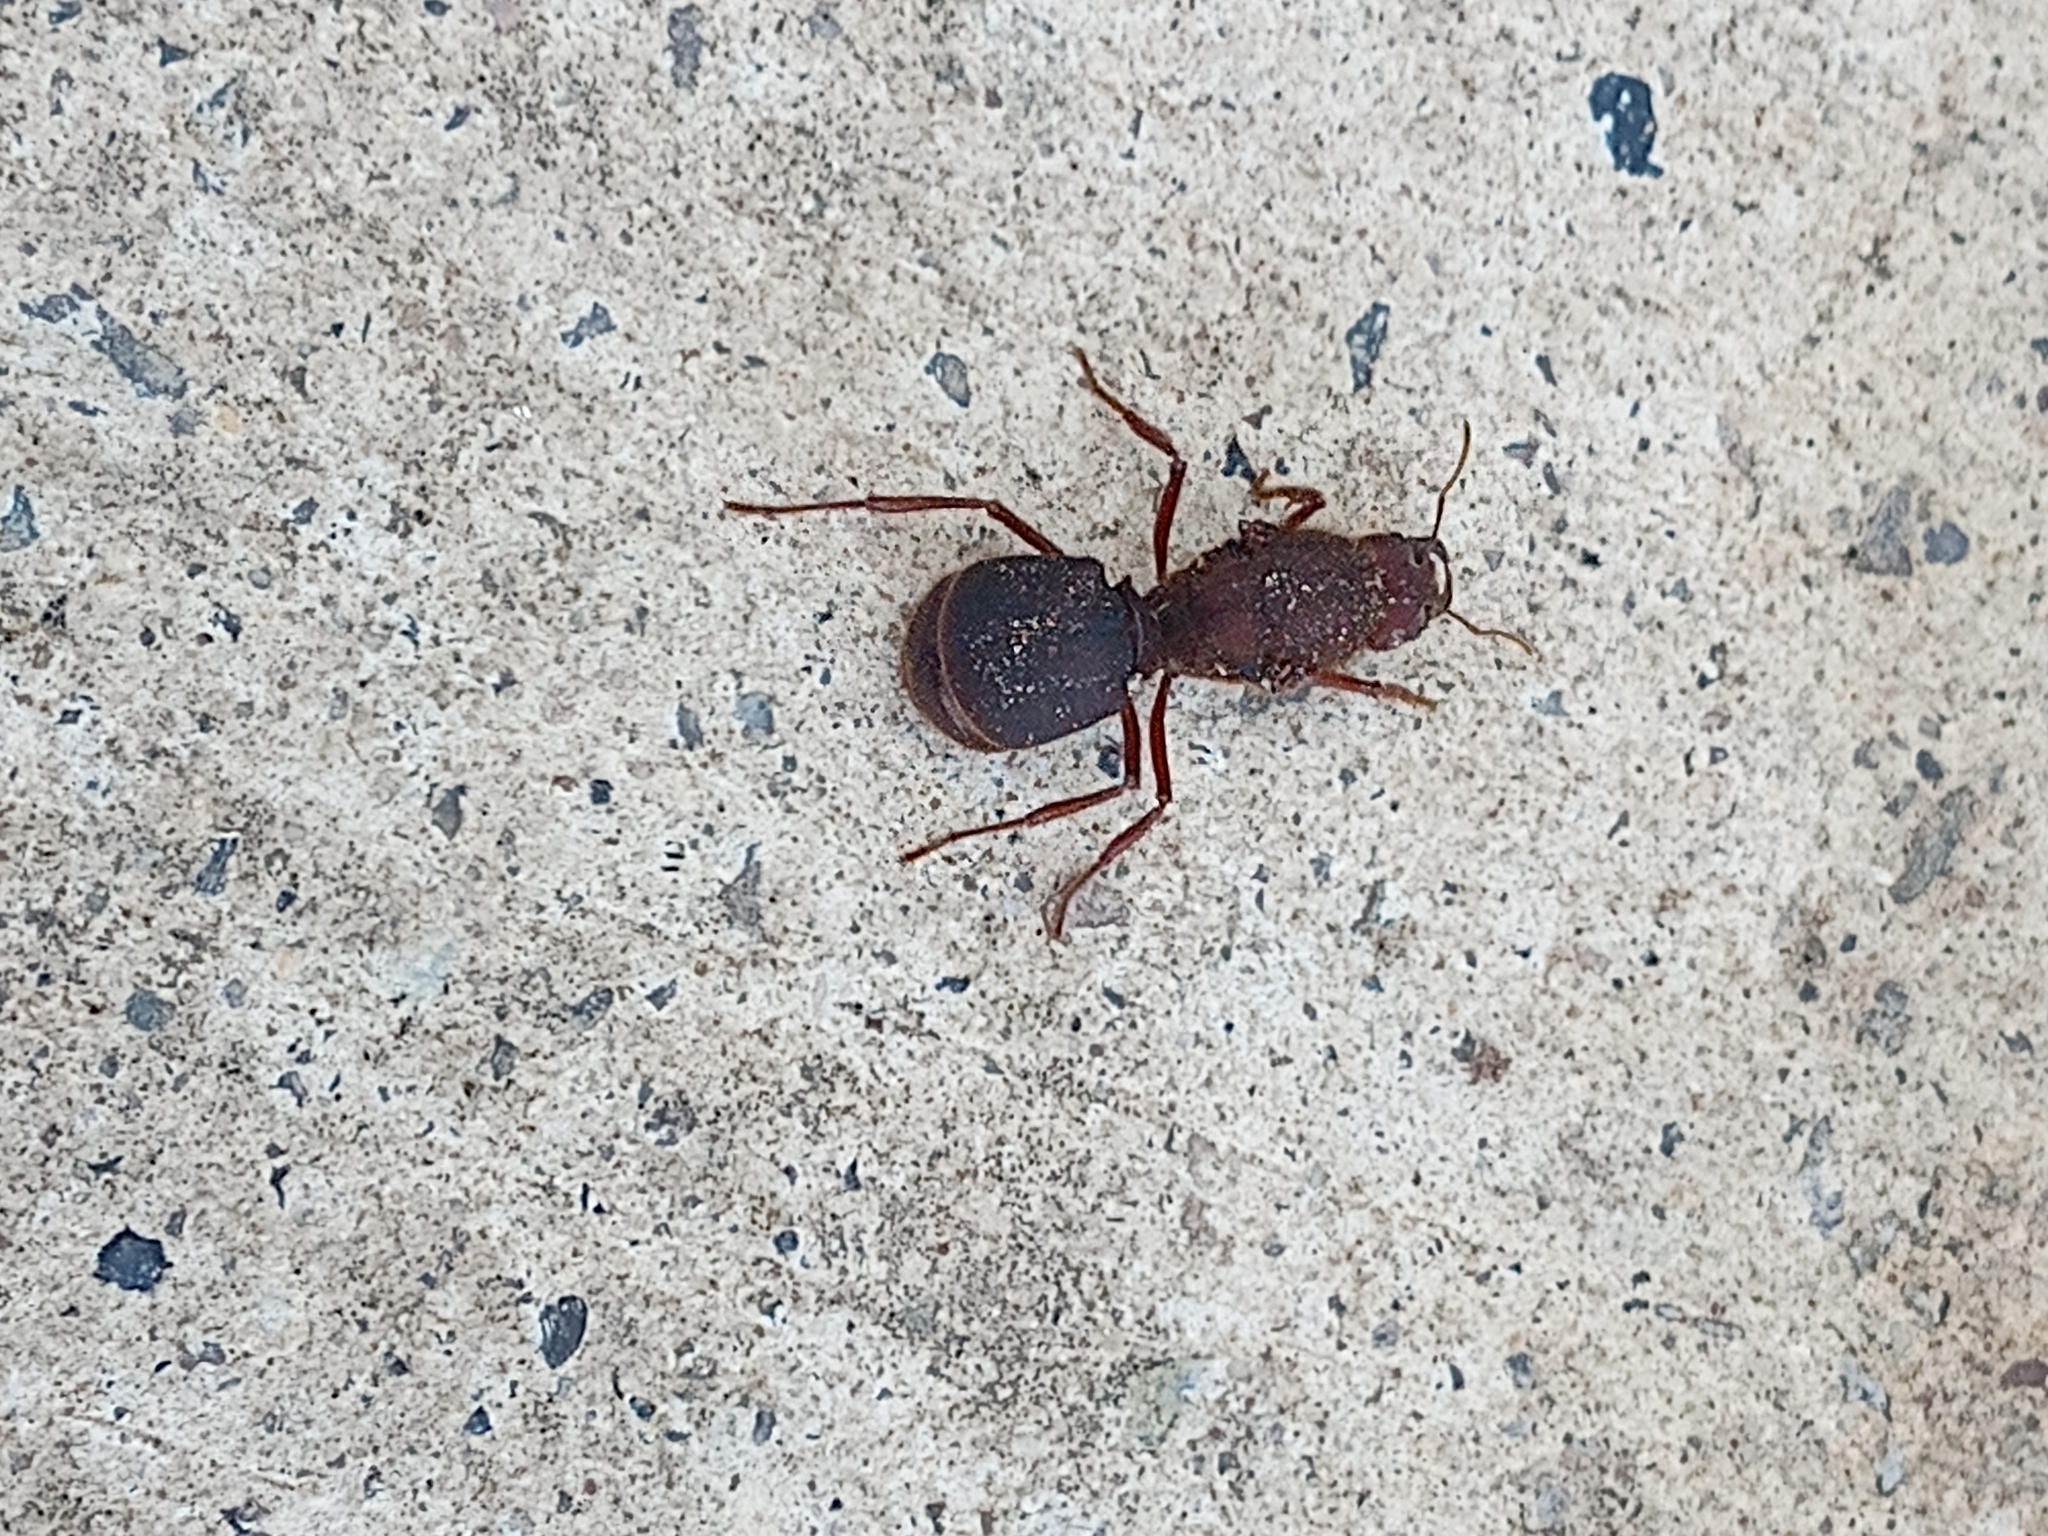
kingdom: Animalia
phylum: Arthropoda
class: Insecta
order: Hymenoptera
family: Formicidae
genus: Atta
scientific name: Atta mexicana
